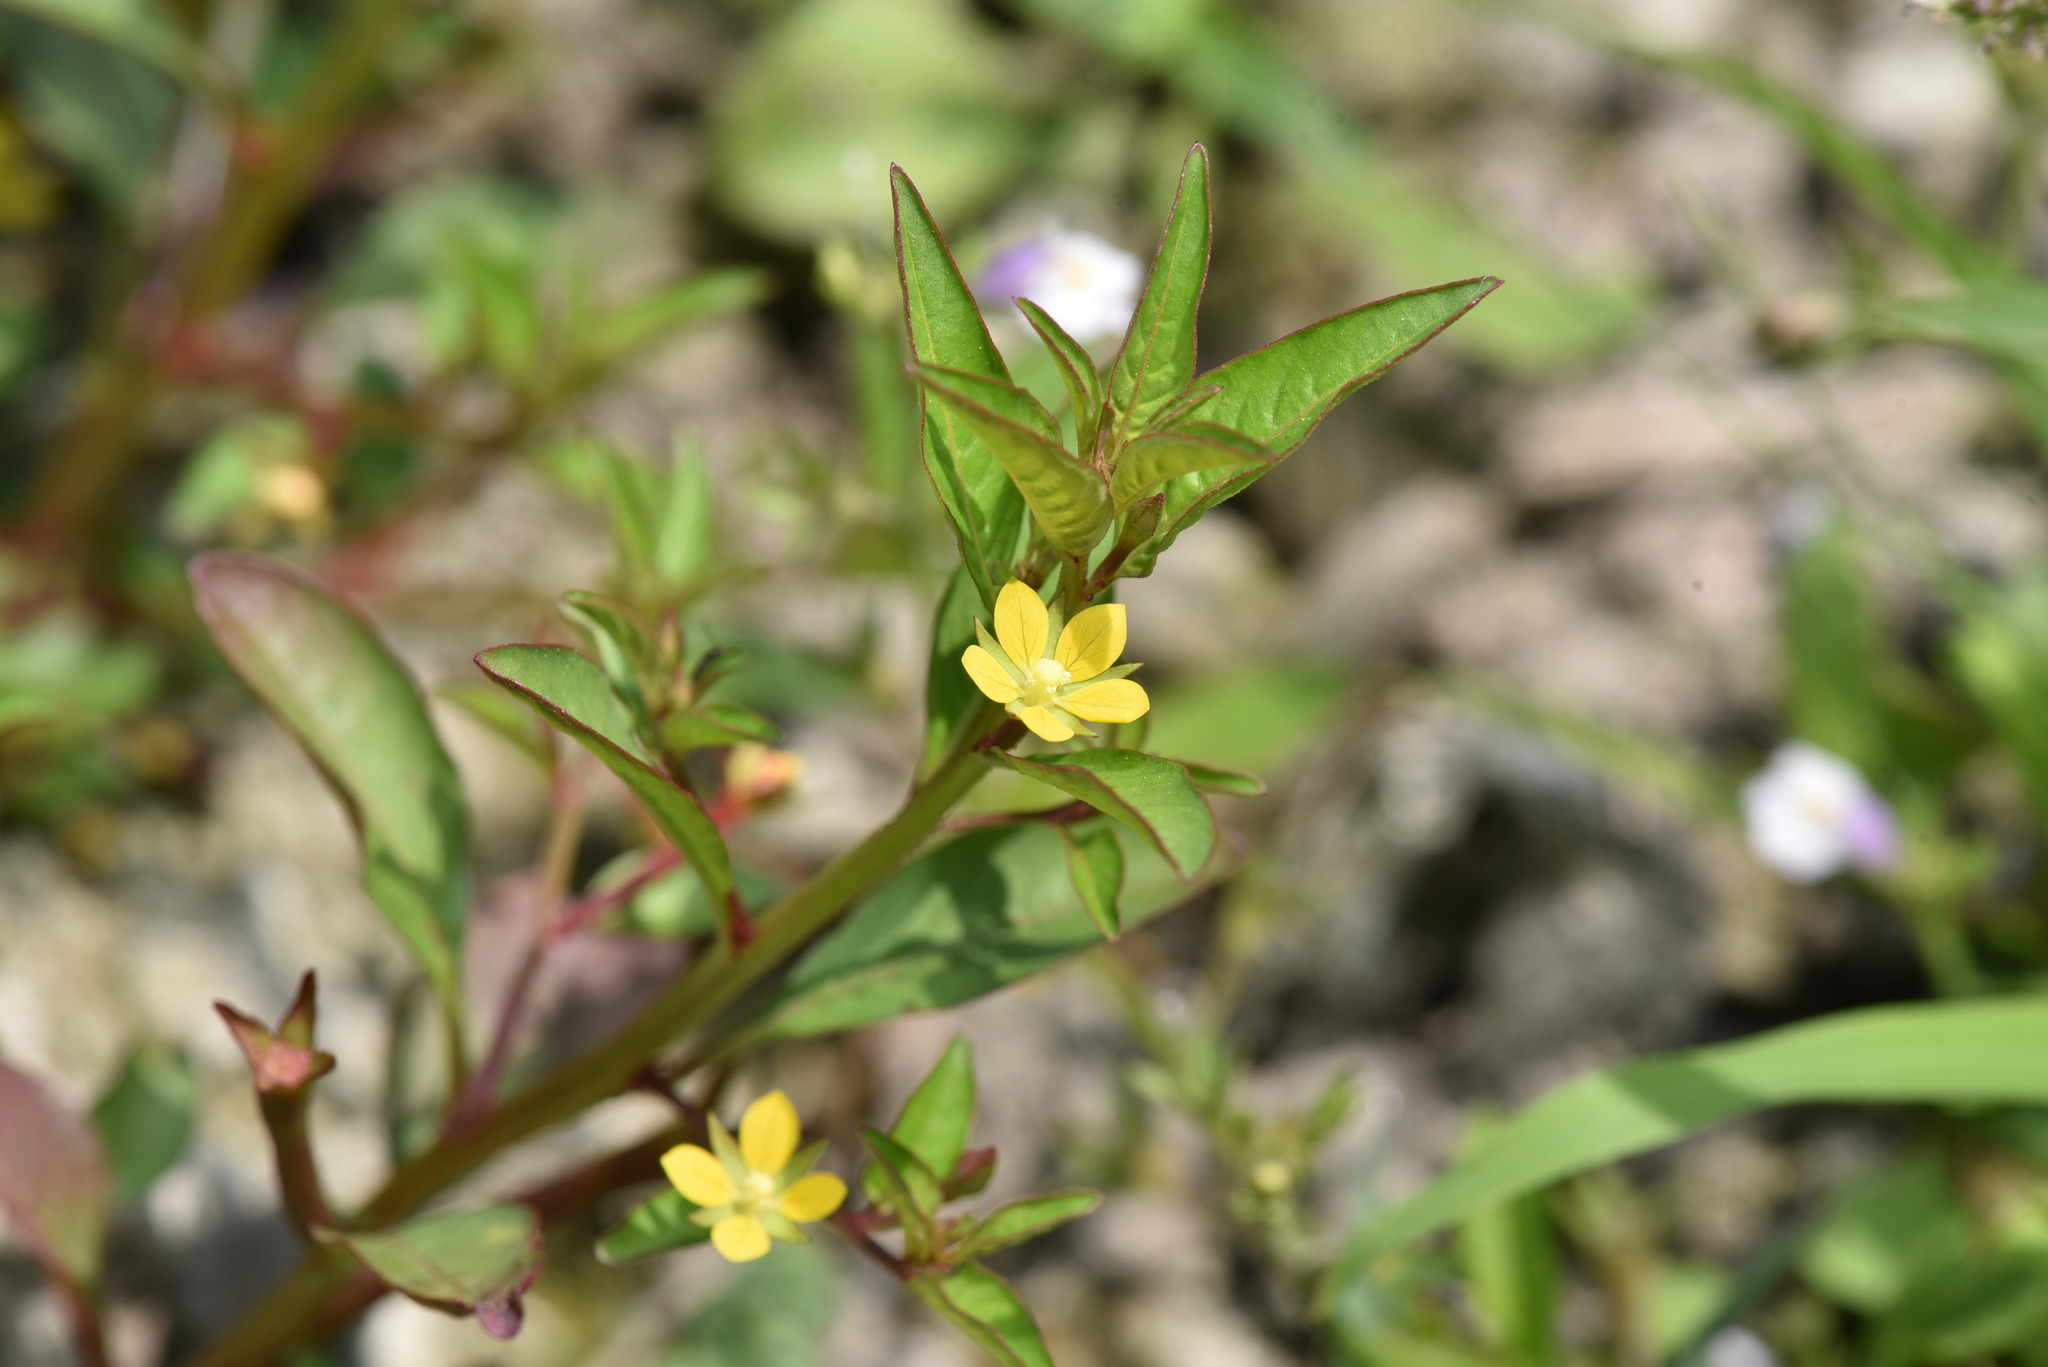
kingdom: Plantae
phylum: Tracheophyta
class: Magnoliopsida
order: Myrtales
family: Onagraceae
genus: Ludwigia
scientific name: Ludwigia hyssopifolia
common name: Linear leaf water primrose
